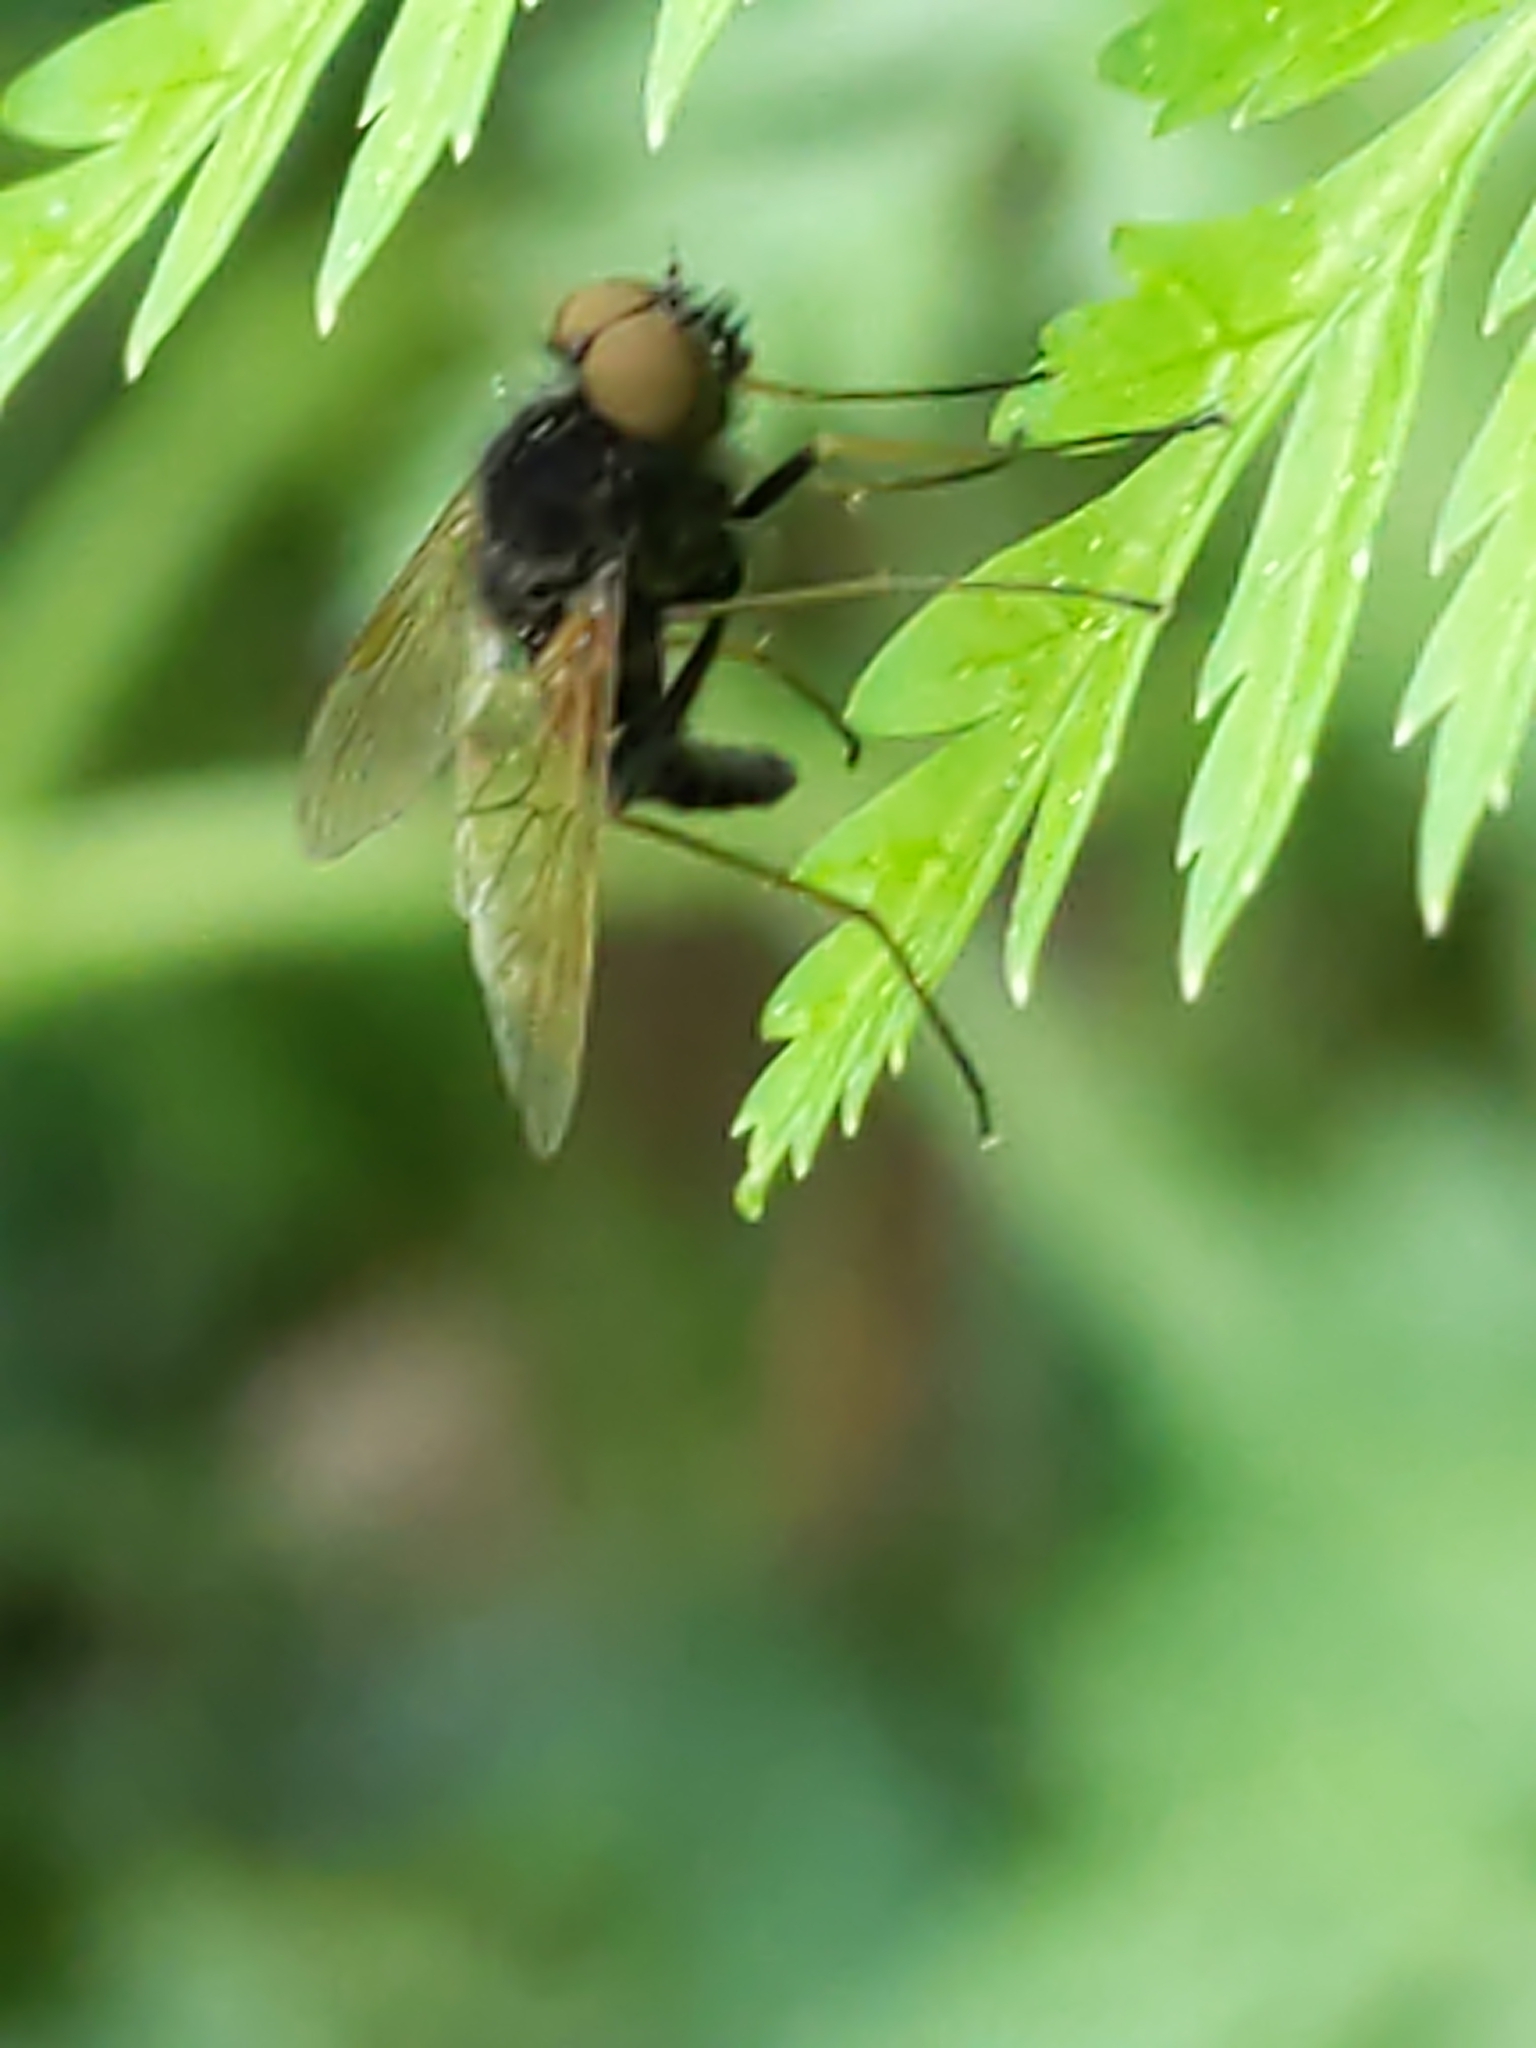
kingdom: Animalia
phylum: Arthropoda
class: Insecta
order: Diptera
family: Rhagionidae
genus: Chrysopilus
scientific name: Chrysopilus proximus
